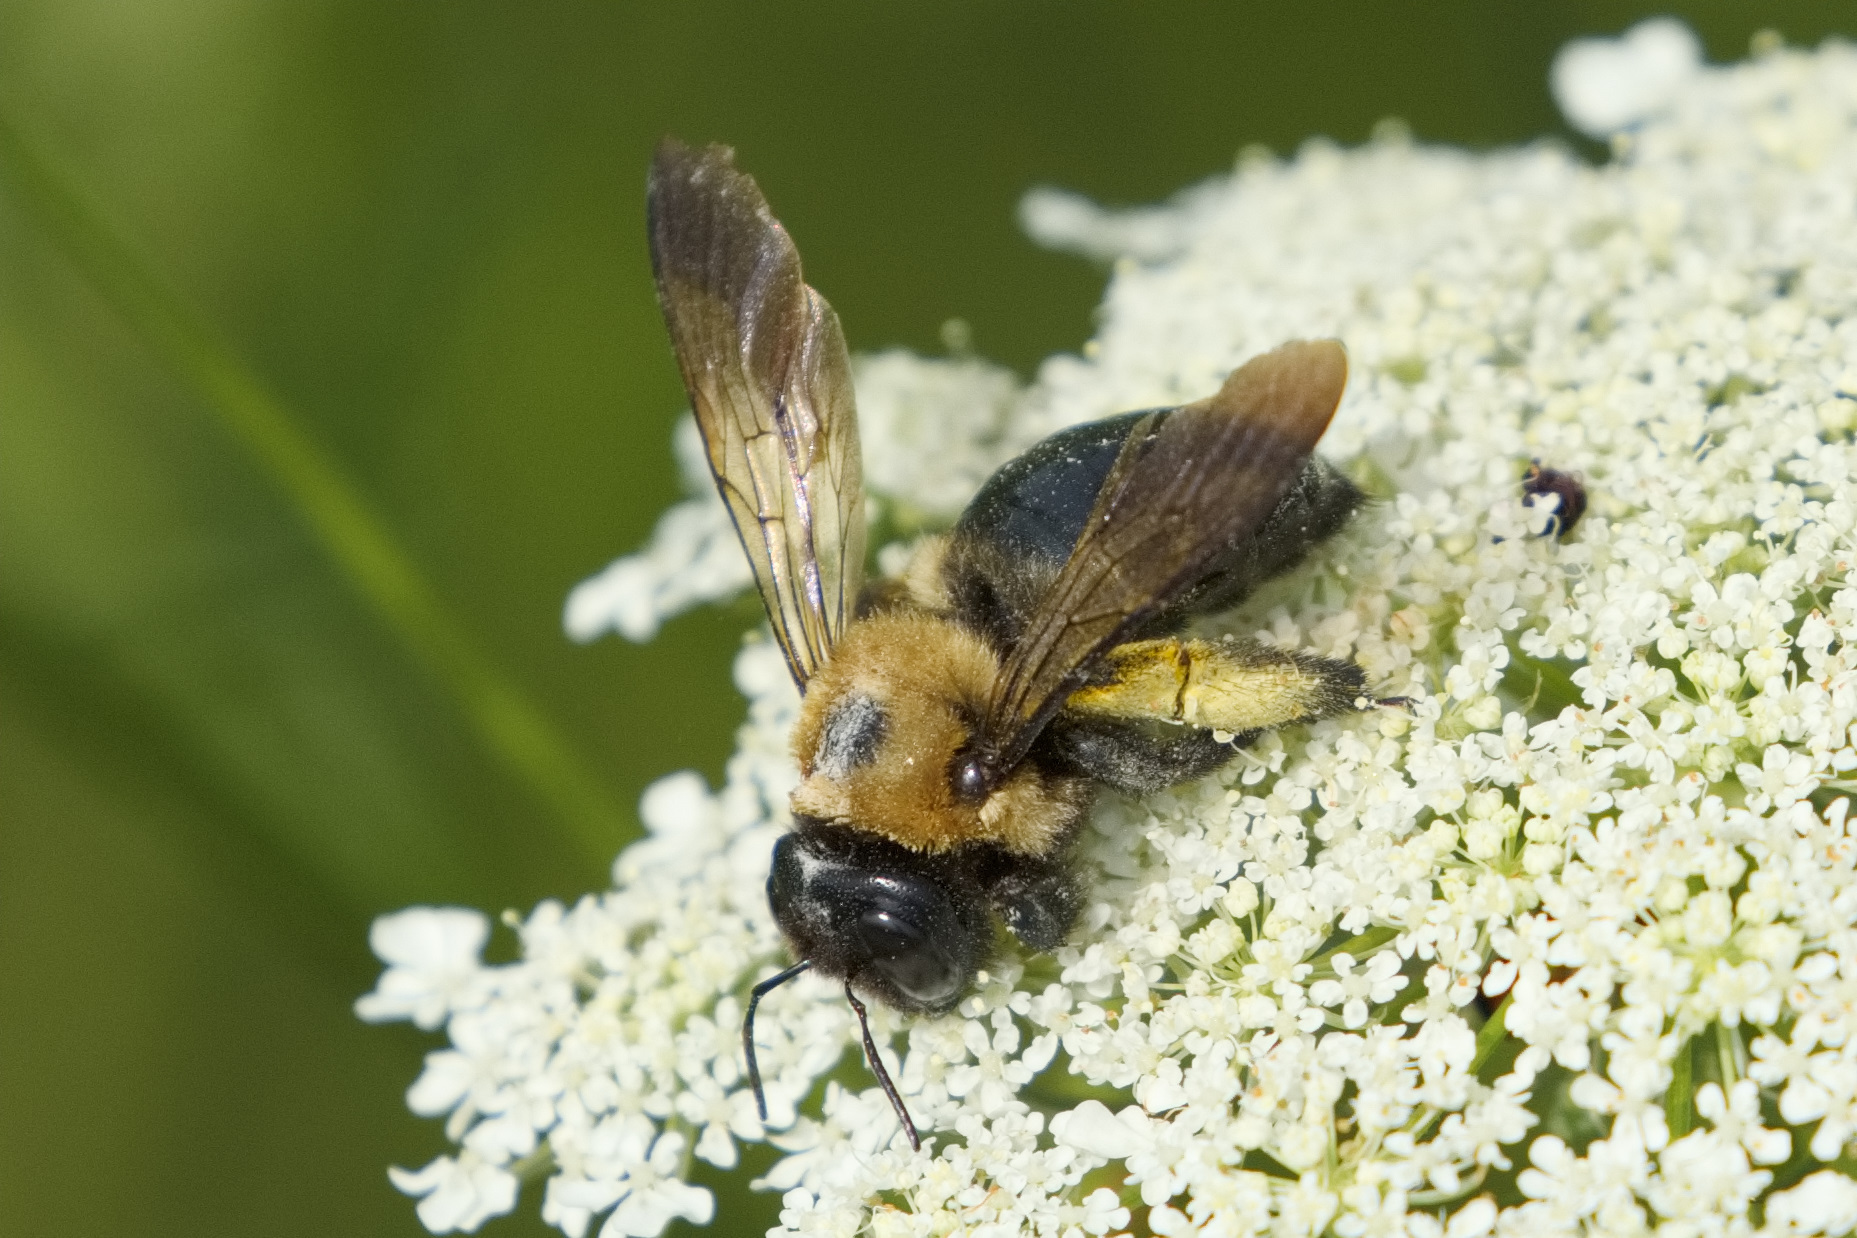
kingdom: Animalia
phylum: Arthropoda
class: Insecta
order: Hymenoptera
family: Apidae
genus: Xylocopa
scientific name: Xylocopa virginica
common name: Carpenter bee
